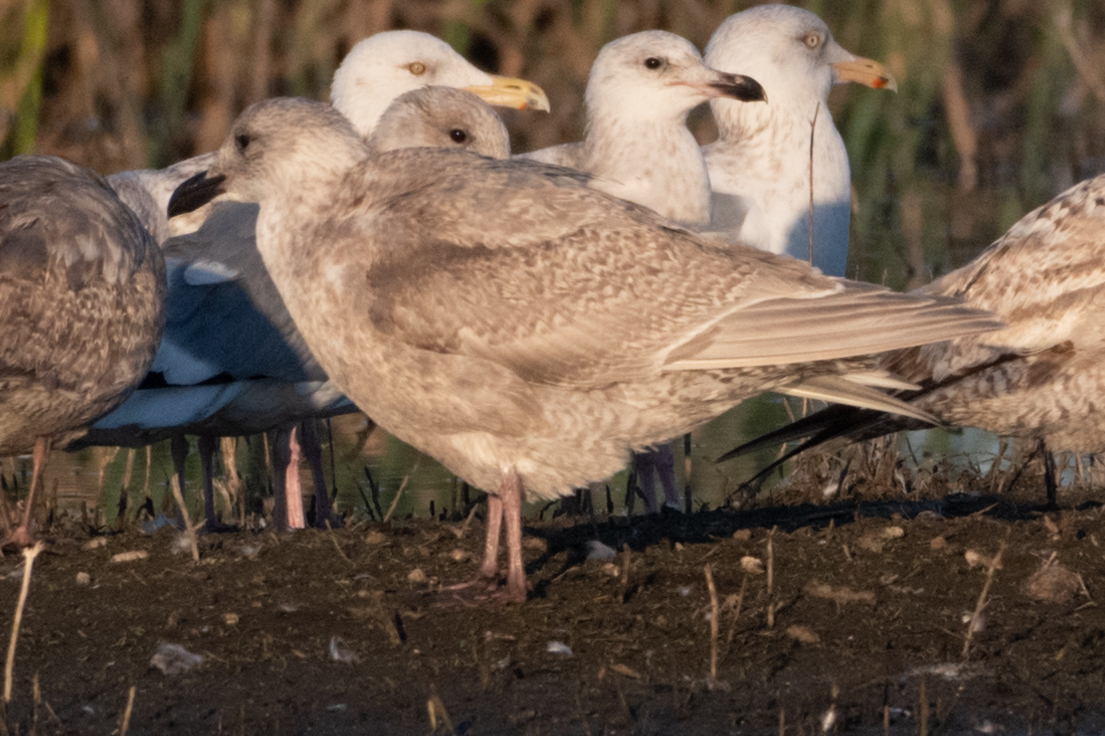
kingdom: Animalia
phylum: Chordata
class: Aves
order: Charadriiformes
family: Laridae
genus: Larus
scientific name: Larus glaucescens
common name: Glaucous-winged gull
